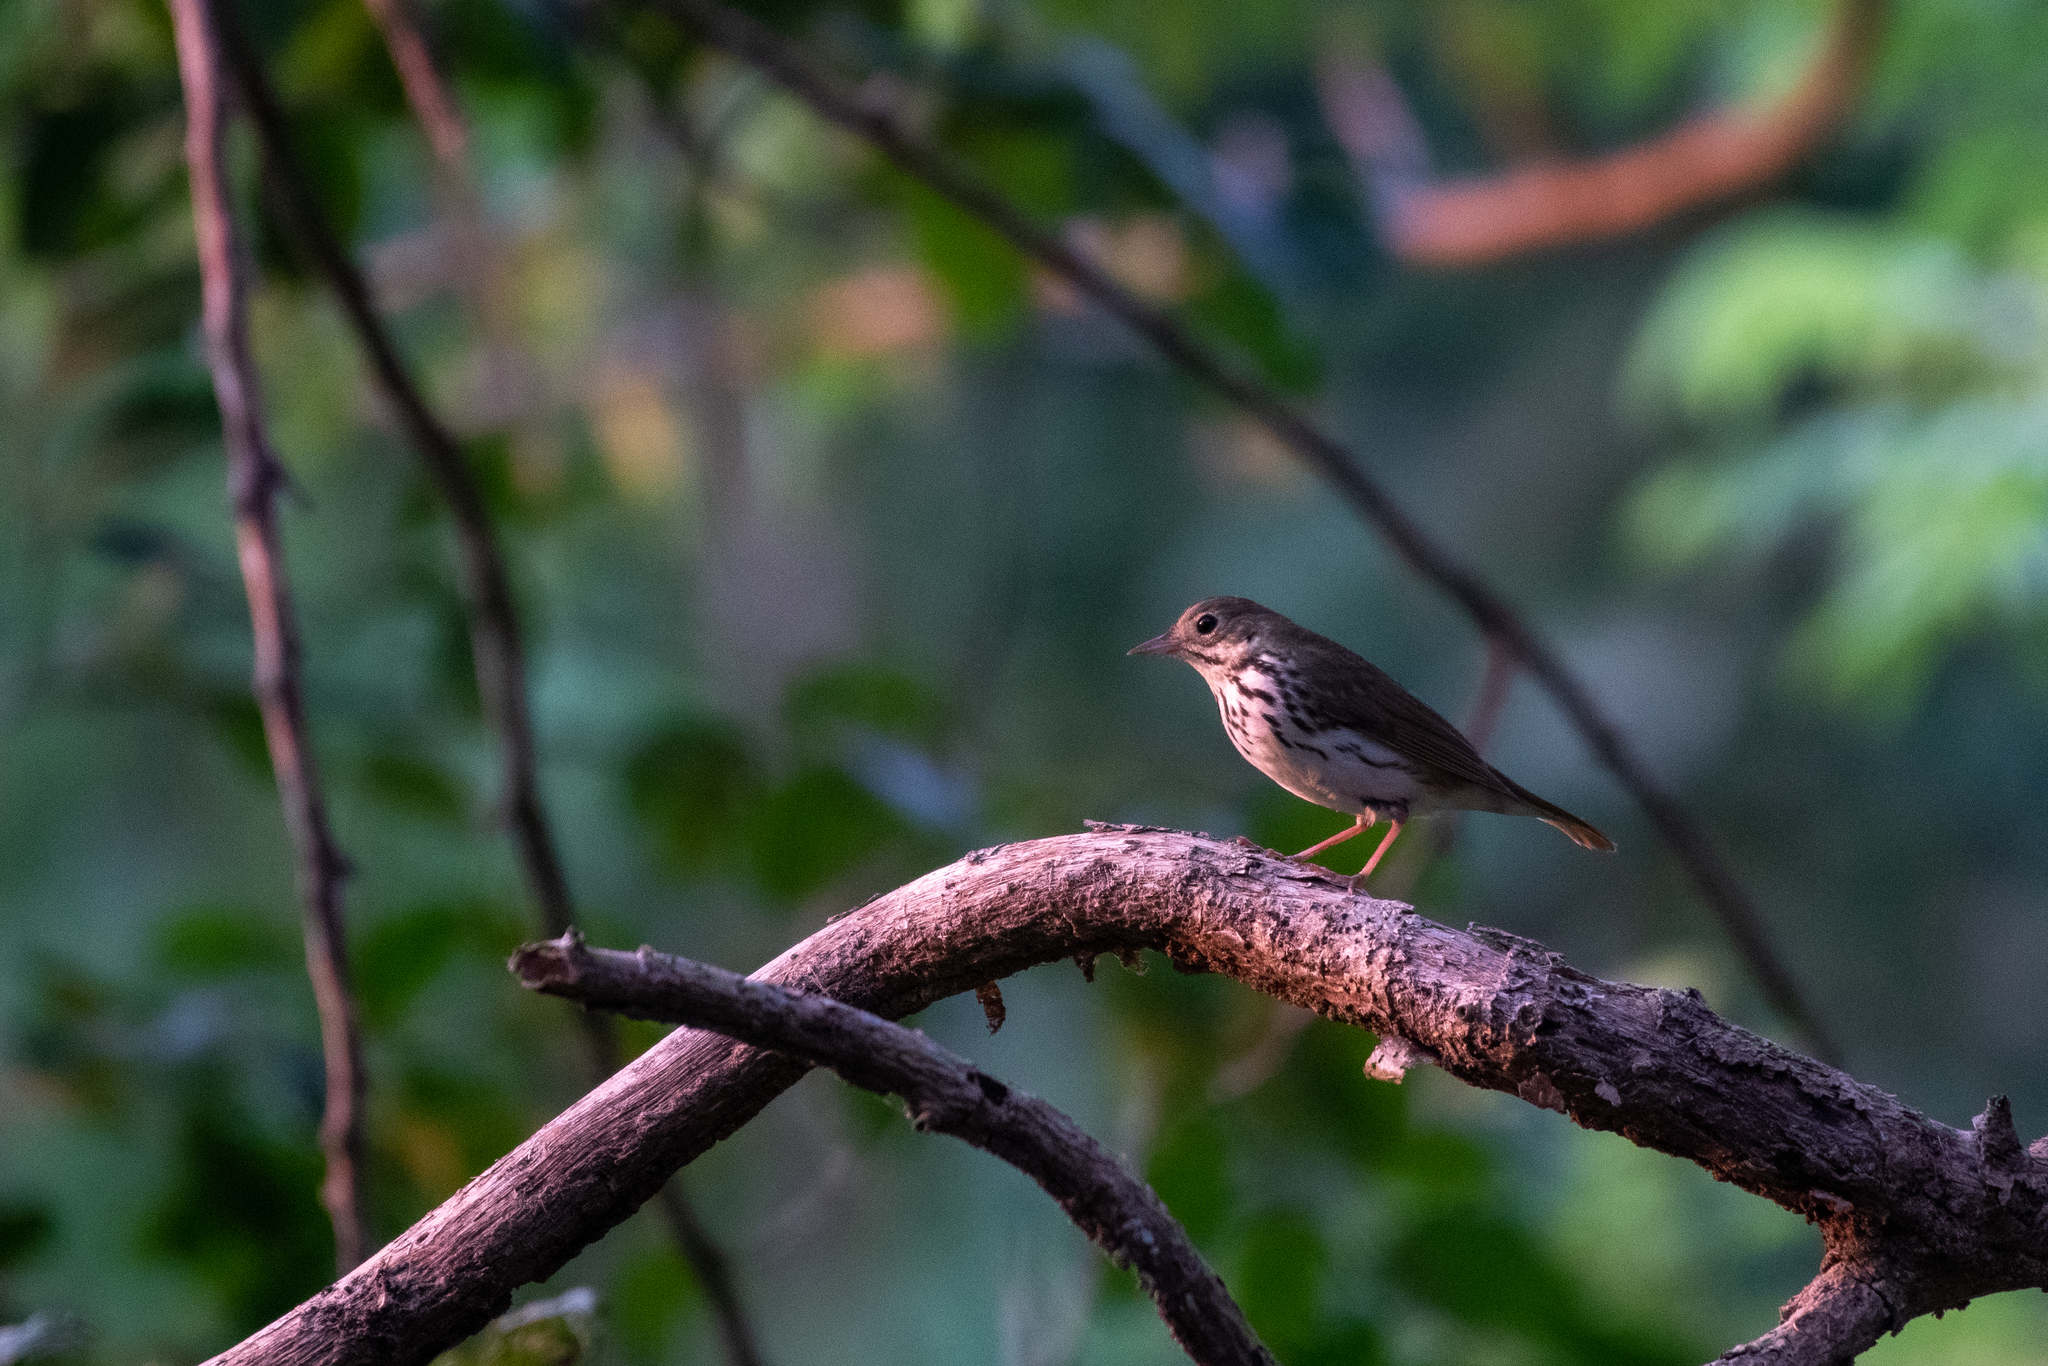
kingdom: Animalia
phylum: Chordata
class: Aves
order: Passeriformes
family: Parulidae
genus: Seiurus
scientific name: Seiurus aurocapilla
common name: Ovenbird
